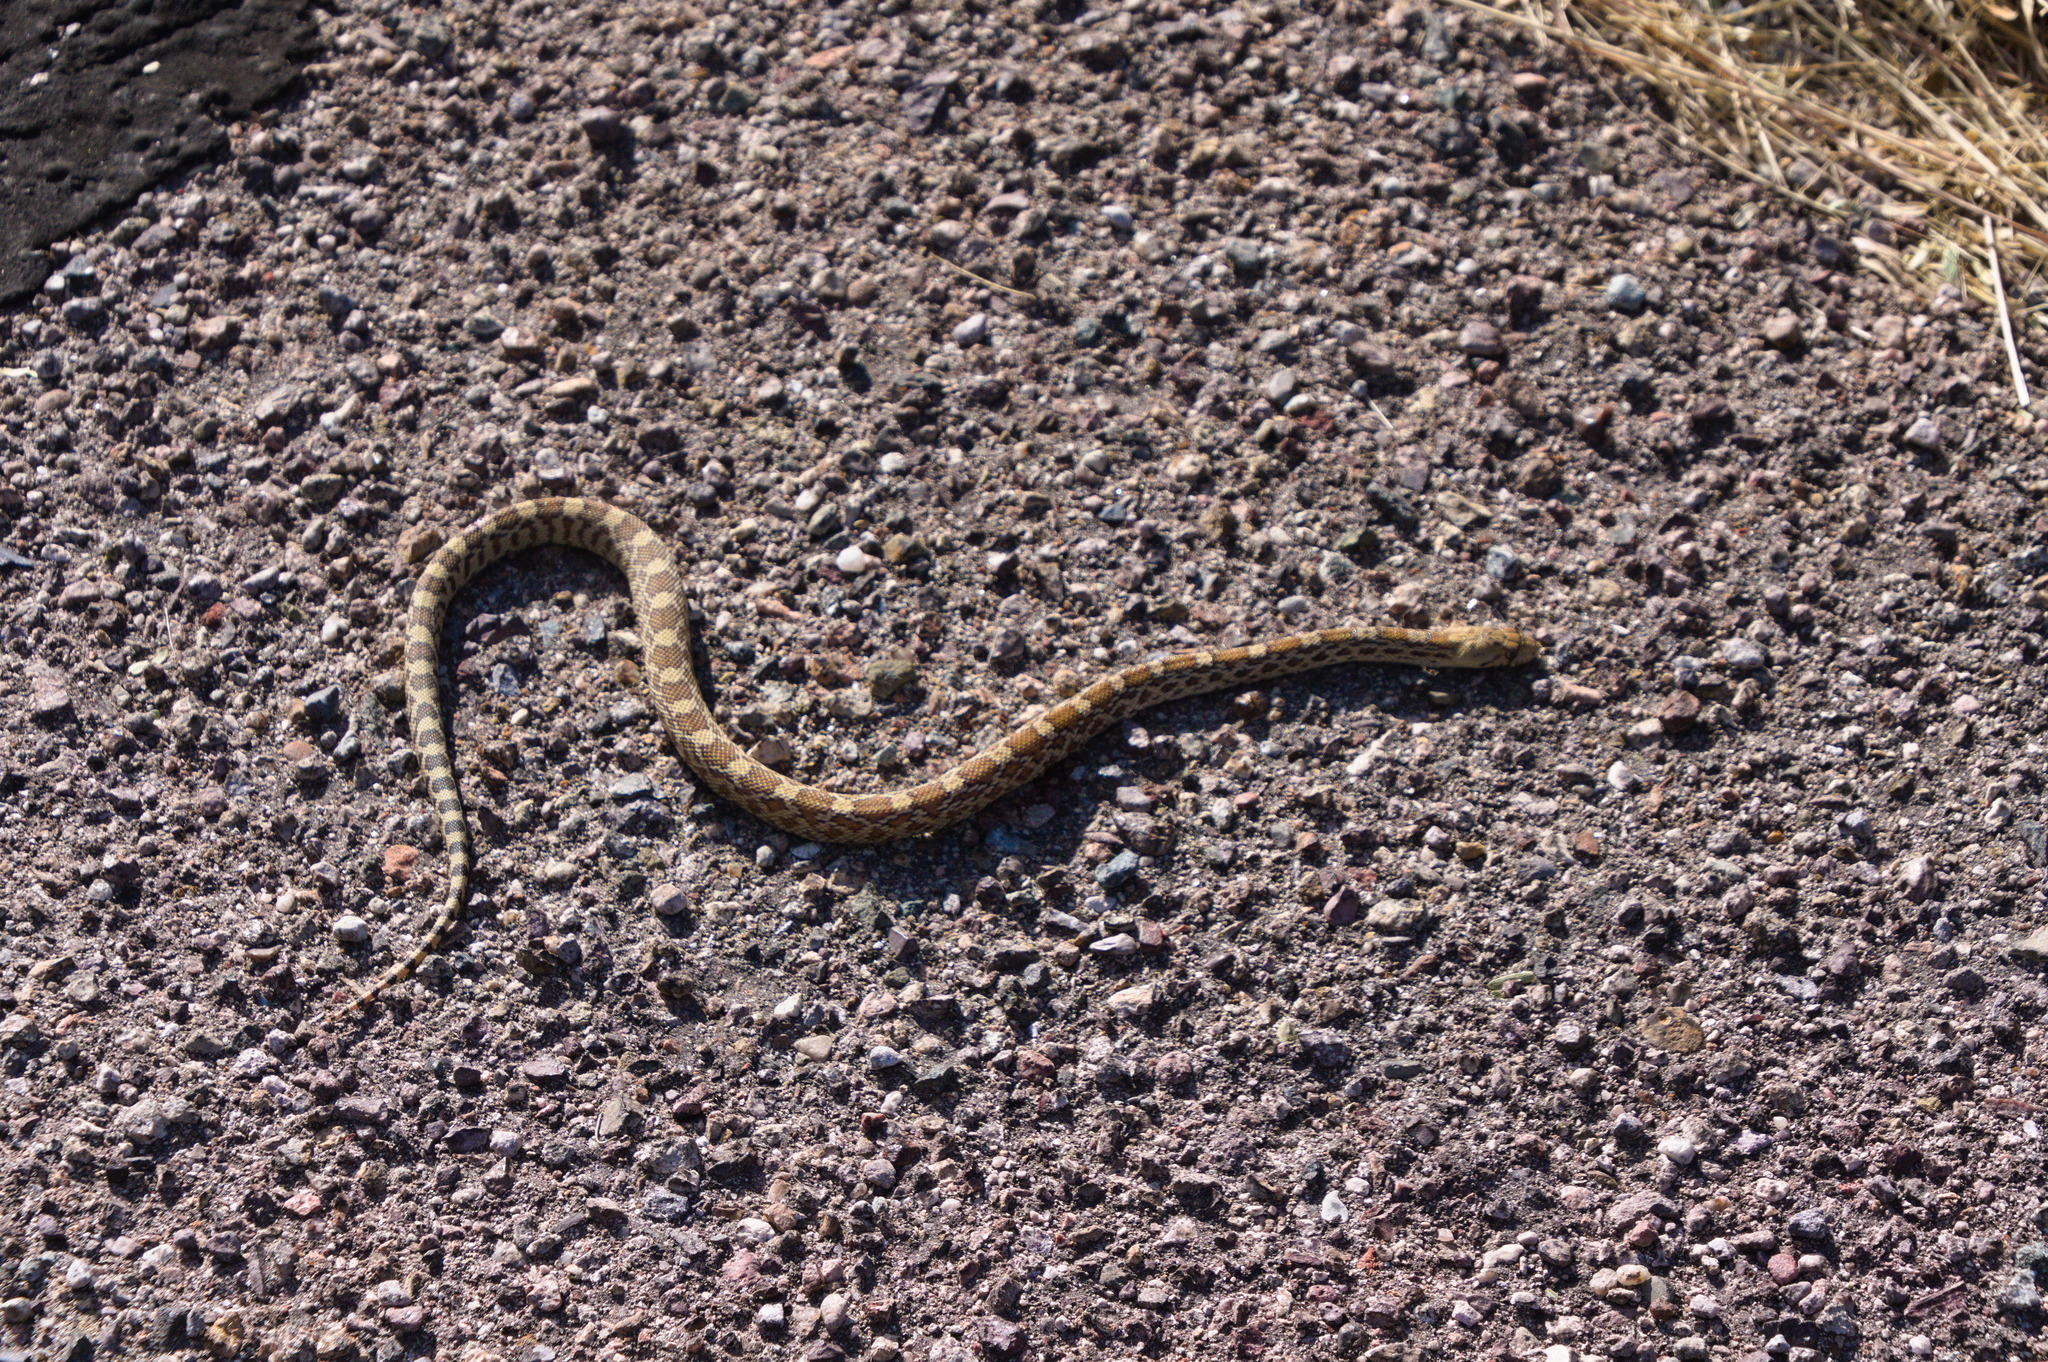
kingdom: Animalia
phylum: Chordata
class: Squamata
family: Colubridae
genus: Pituophis
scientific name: Pituophis catenifer
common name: Gopher snake
